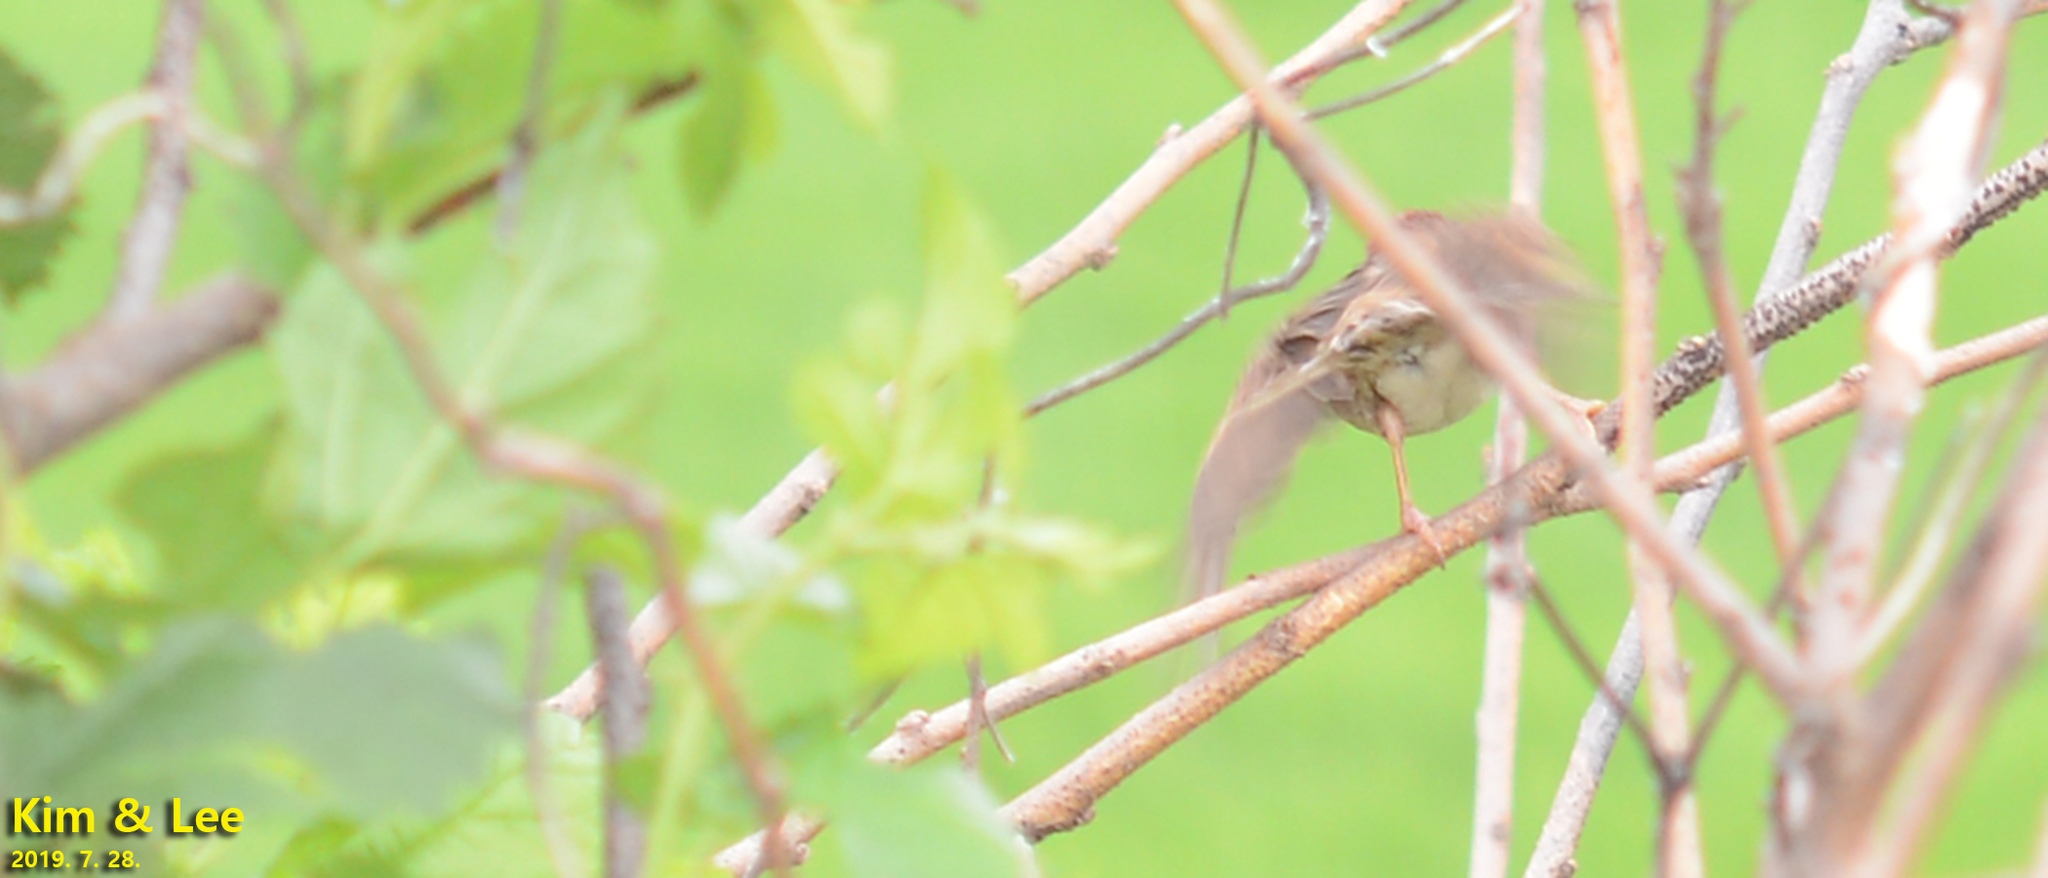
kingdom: Animalia
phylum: Chordata
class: Aves
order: Passeriformes
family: Passeridae
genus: Passer
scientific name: Passer montanus
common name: Eurasian tree sparrow
